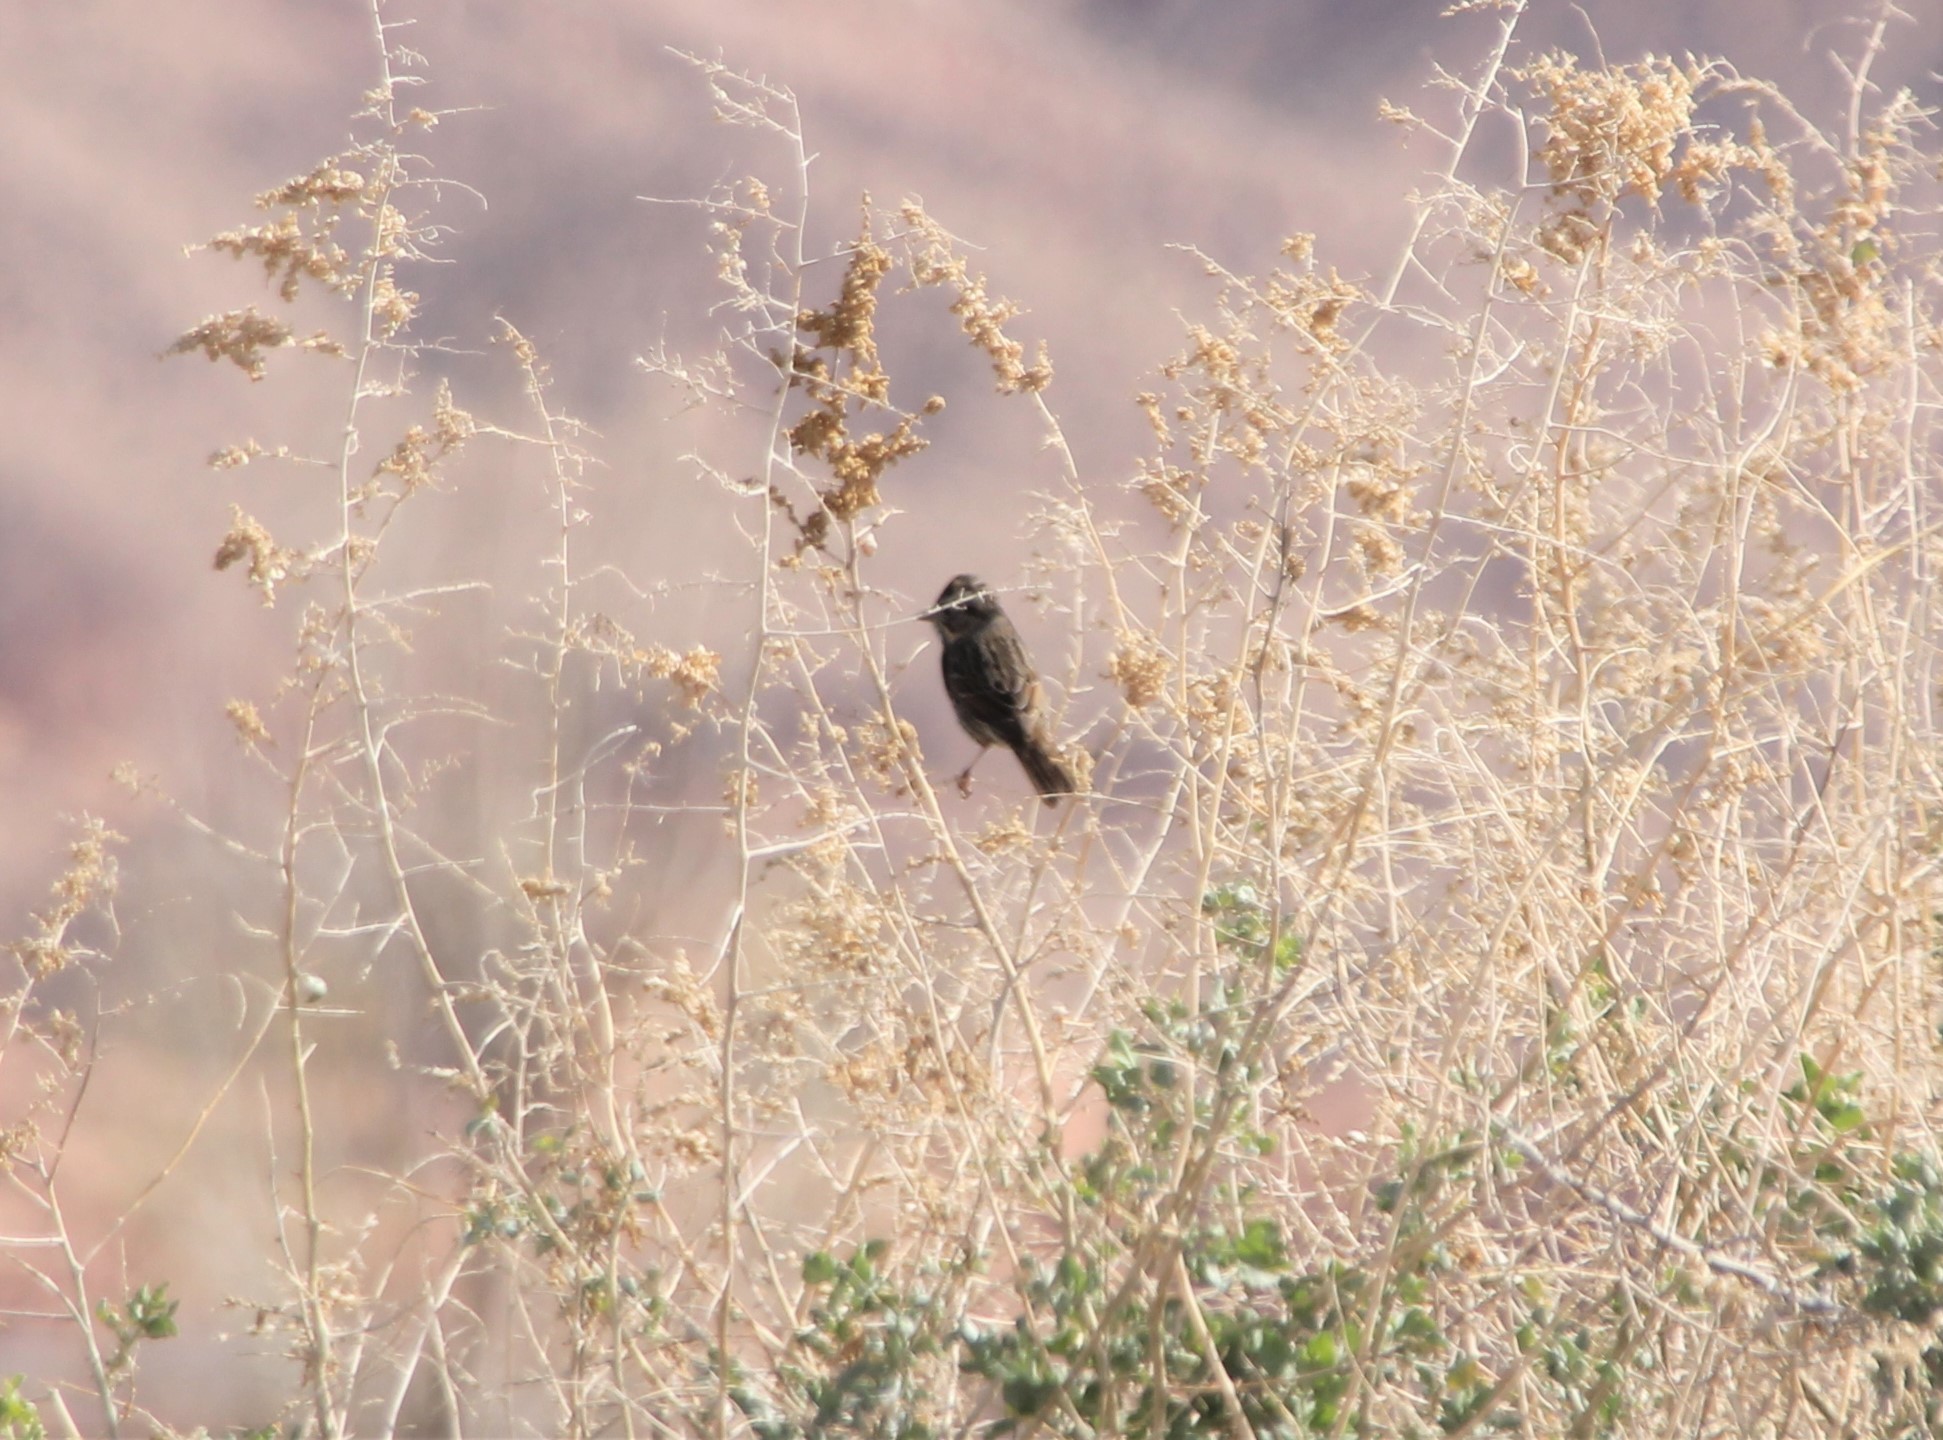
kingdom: Animalia
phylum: Chordata
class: Aves
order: Passeriformes
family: Passerellidae
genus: Melospiza
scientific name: Melospiza lincolnii
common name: Lincoln's sparrow
